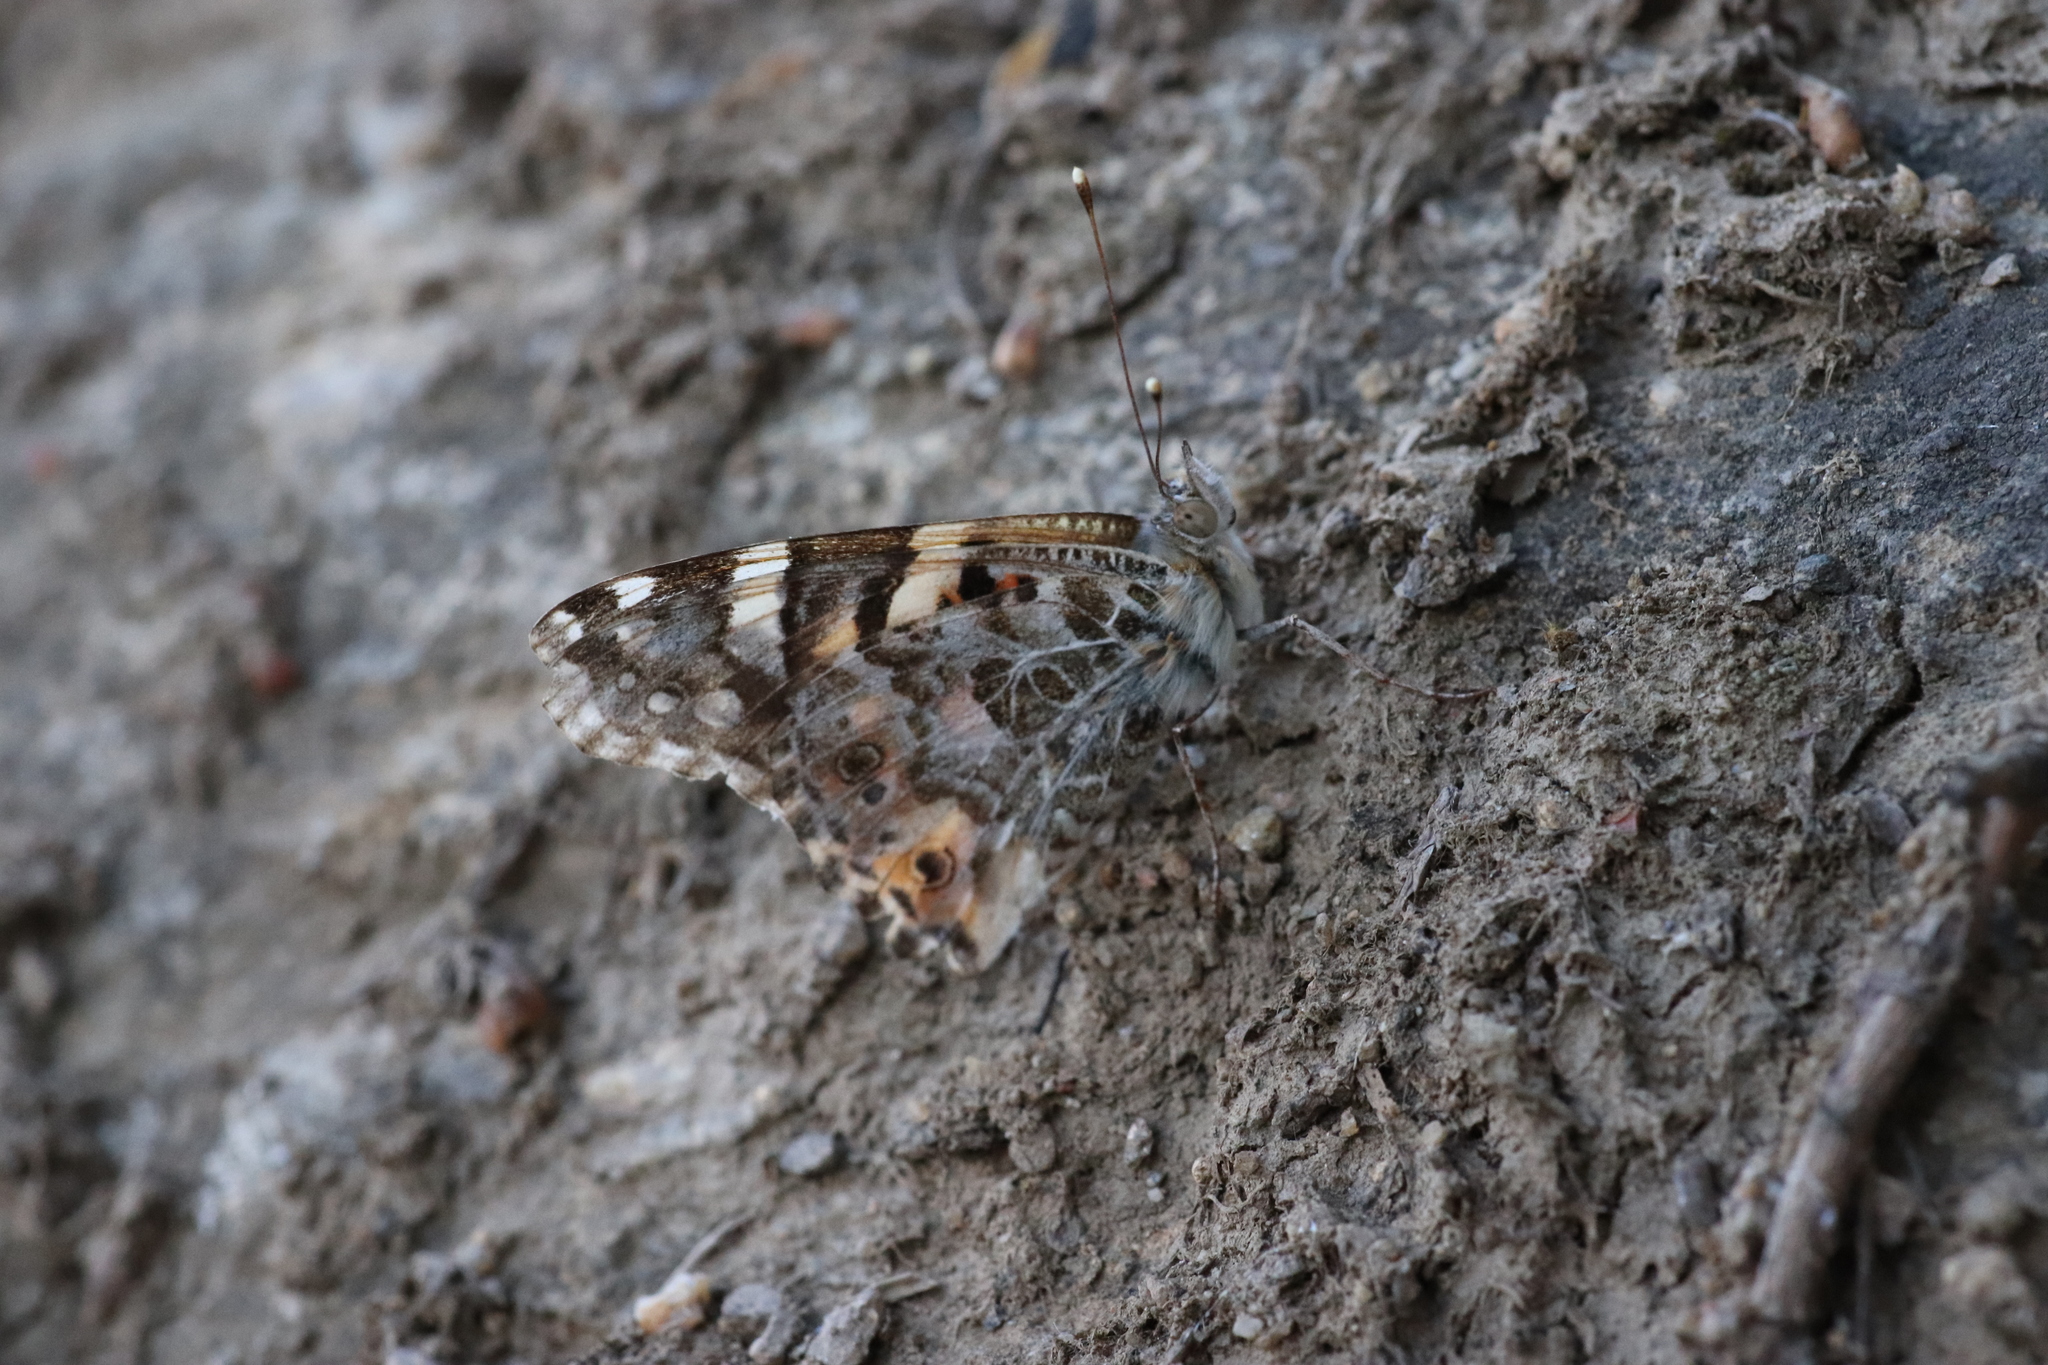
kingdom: Animalia
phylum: Arthropoda
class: Insecta
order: Lepidoptera
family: Nymphalidae
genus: Vanessa
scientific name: Vanessa cardui
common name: Painted lady
